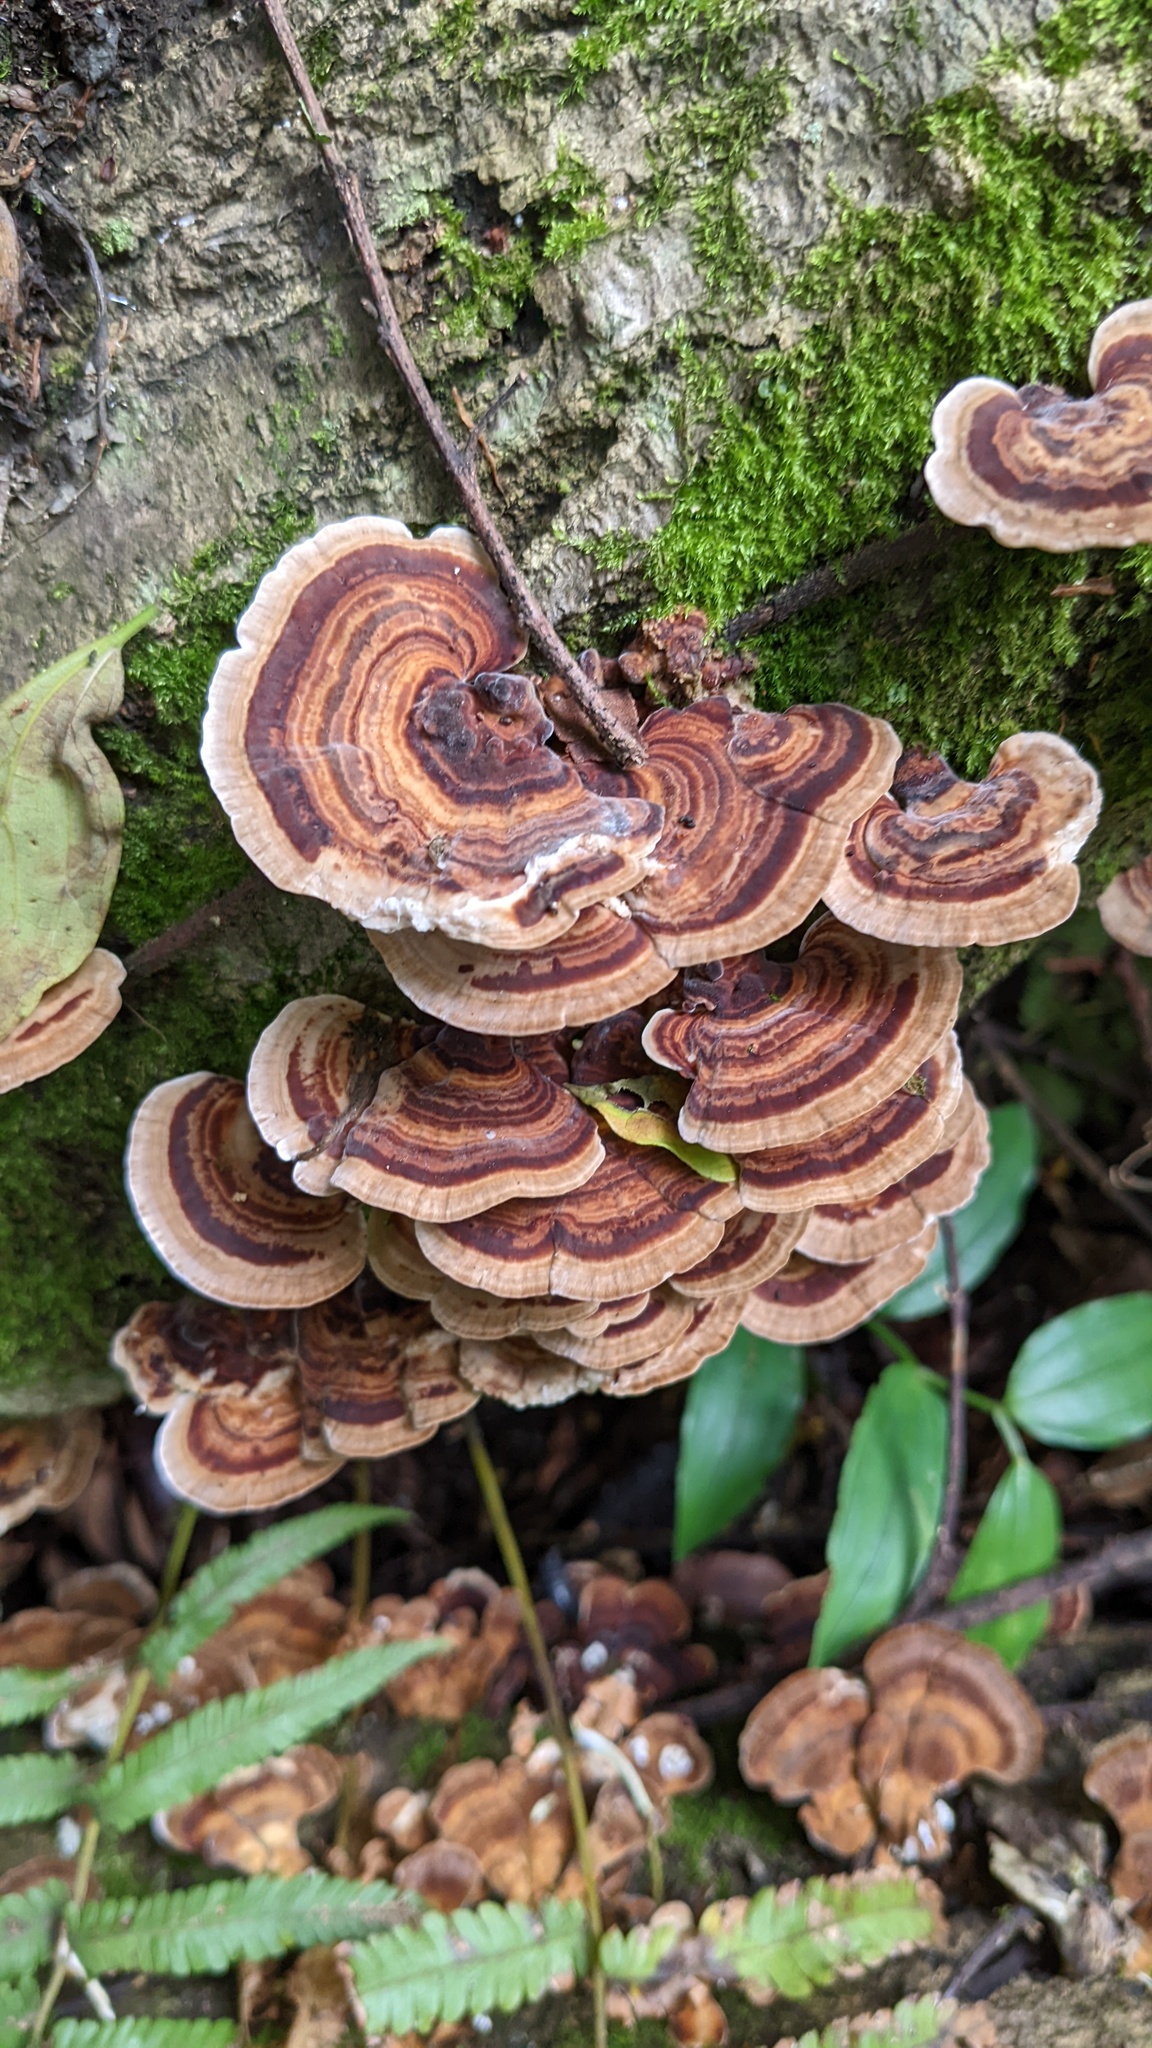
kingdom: Fungi
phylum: Basidiomycota
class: Agaricomycetes
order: Polyporales
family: Polyporaceae
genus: Microporus
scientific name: Microporus affinis
